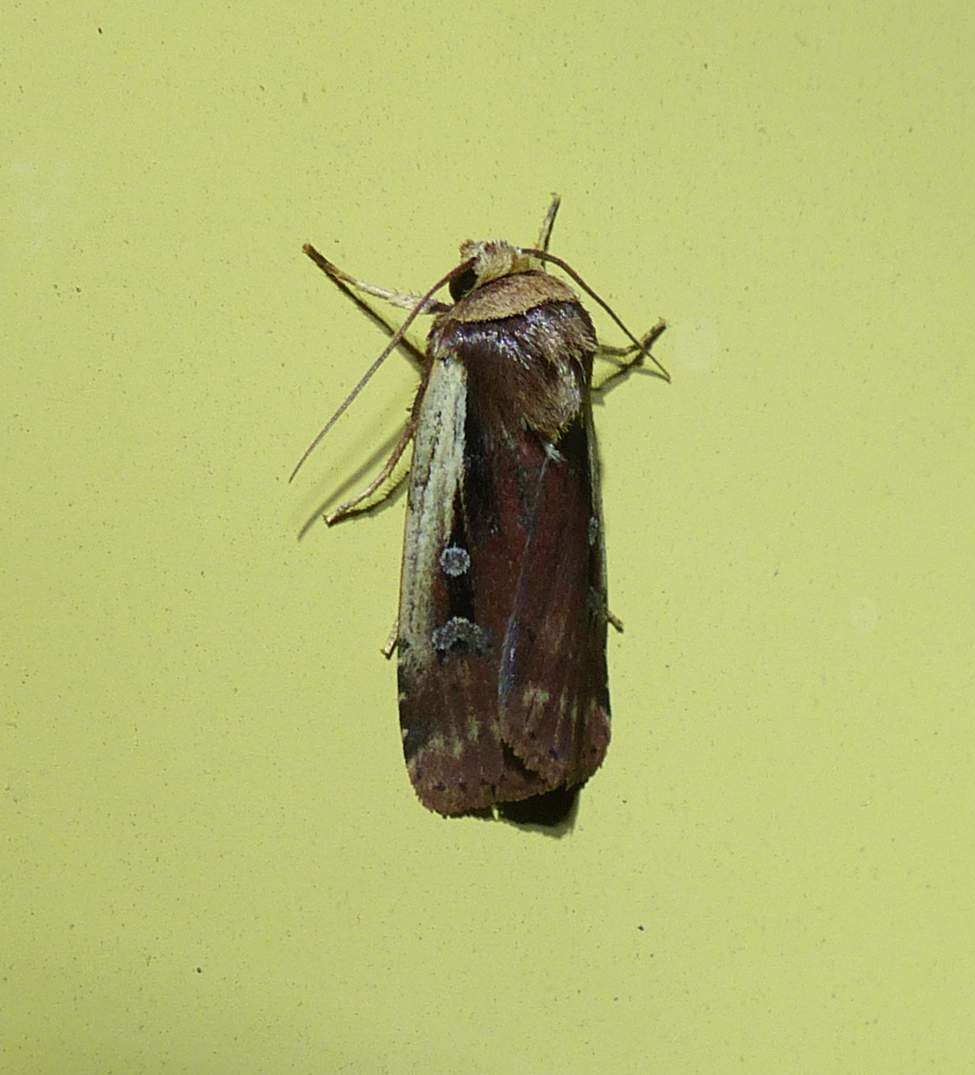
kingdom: Animalia
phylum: Arthropoda
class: Insecta
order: Lepidoptera
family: Noctuidae
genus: Ochropleura
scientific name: Ochropleura implecta
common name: Flame-shouldered dart
